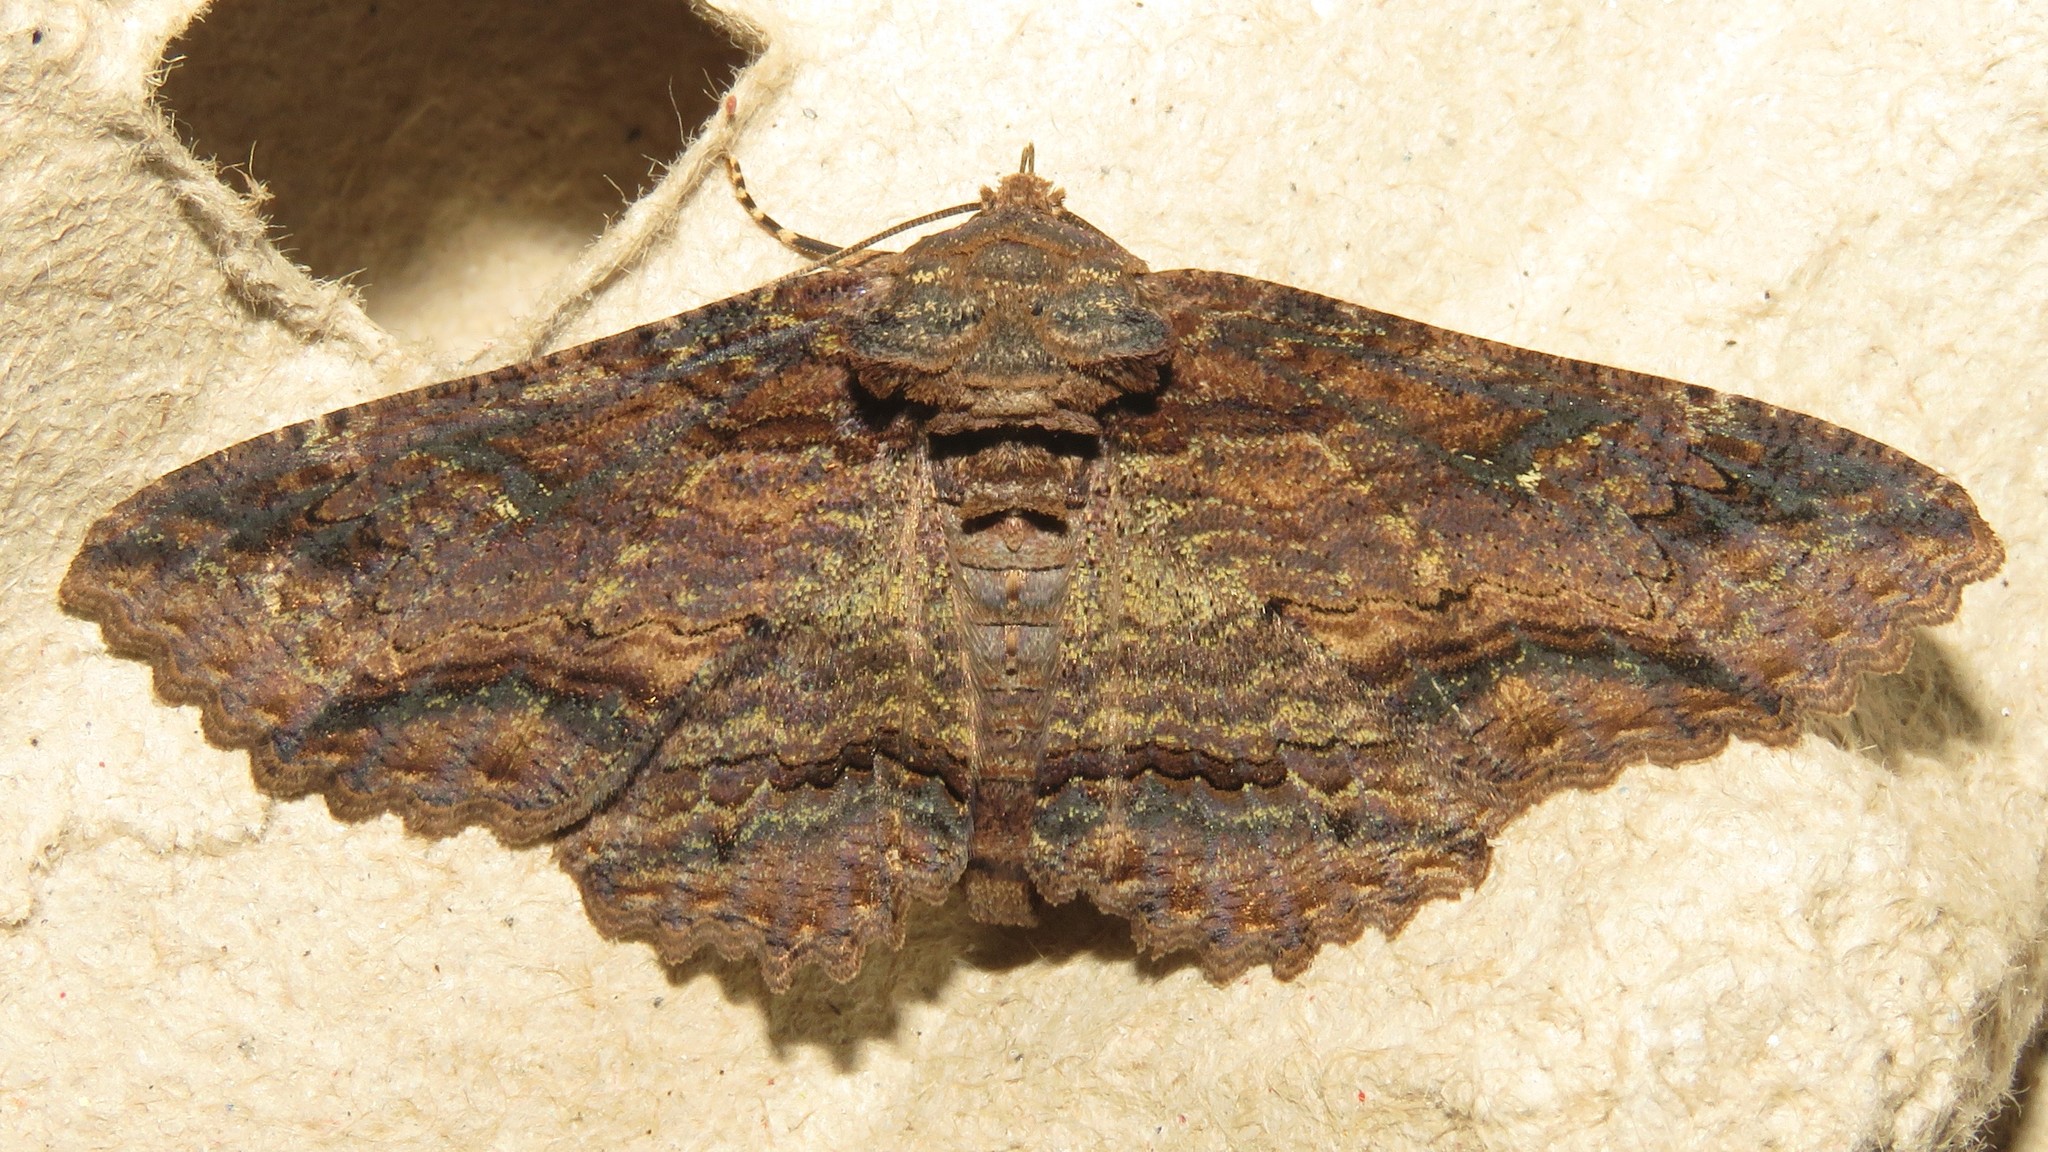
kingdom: Animalia
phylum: Arthropoda
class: Insecta
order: Lepidoptera
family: Erebidae
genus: Zale
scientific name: Zale lunata
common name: Lunate zale moth
